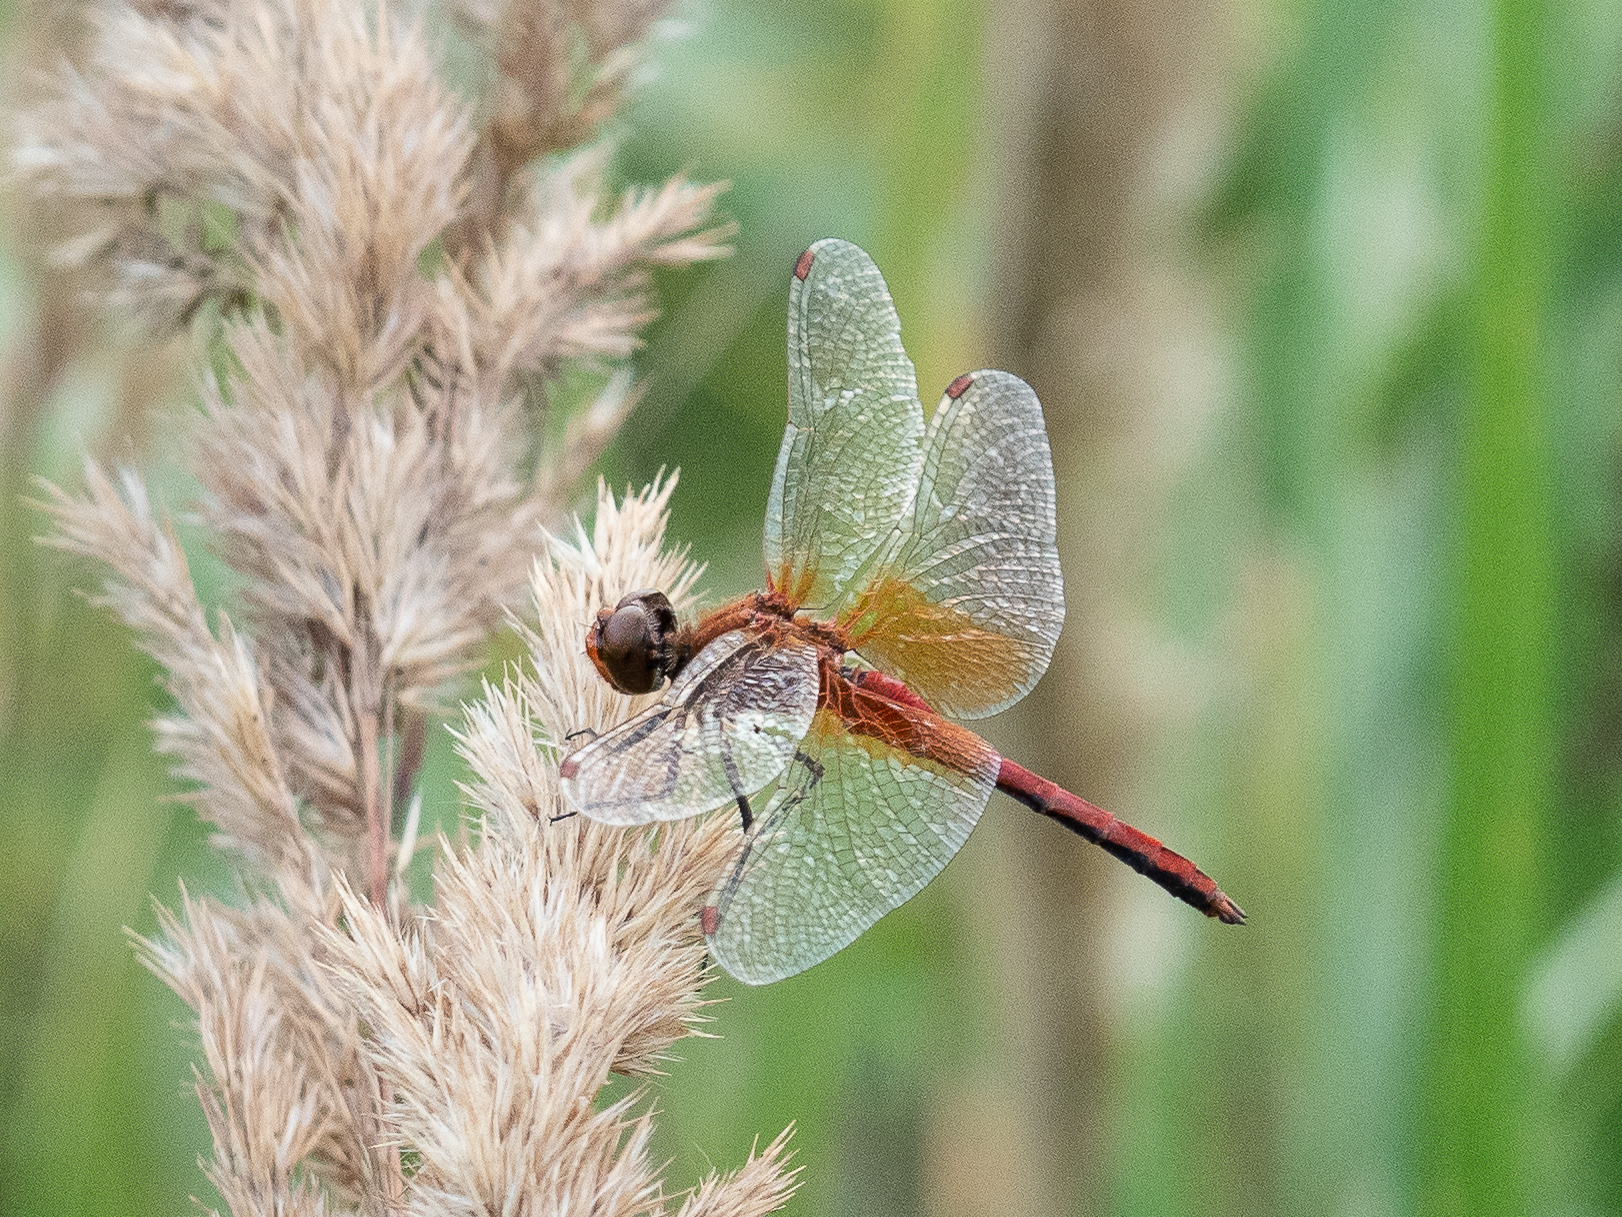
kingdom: Animalia
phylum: Arthropoda
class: Insecta
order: Odonata
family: Libellulidae
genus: Sympetrum
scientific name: Sympetrum flaveolum
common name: Yellow-winged darter
